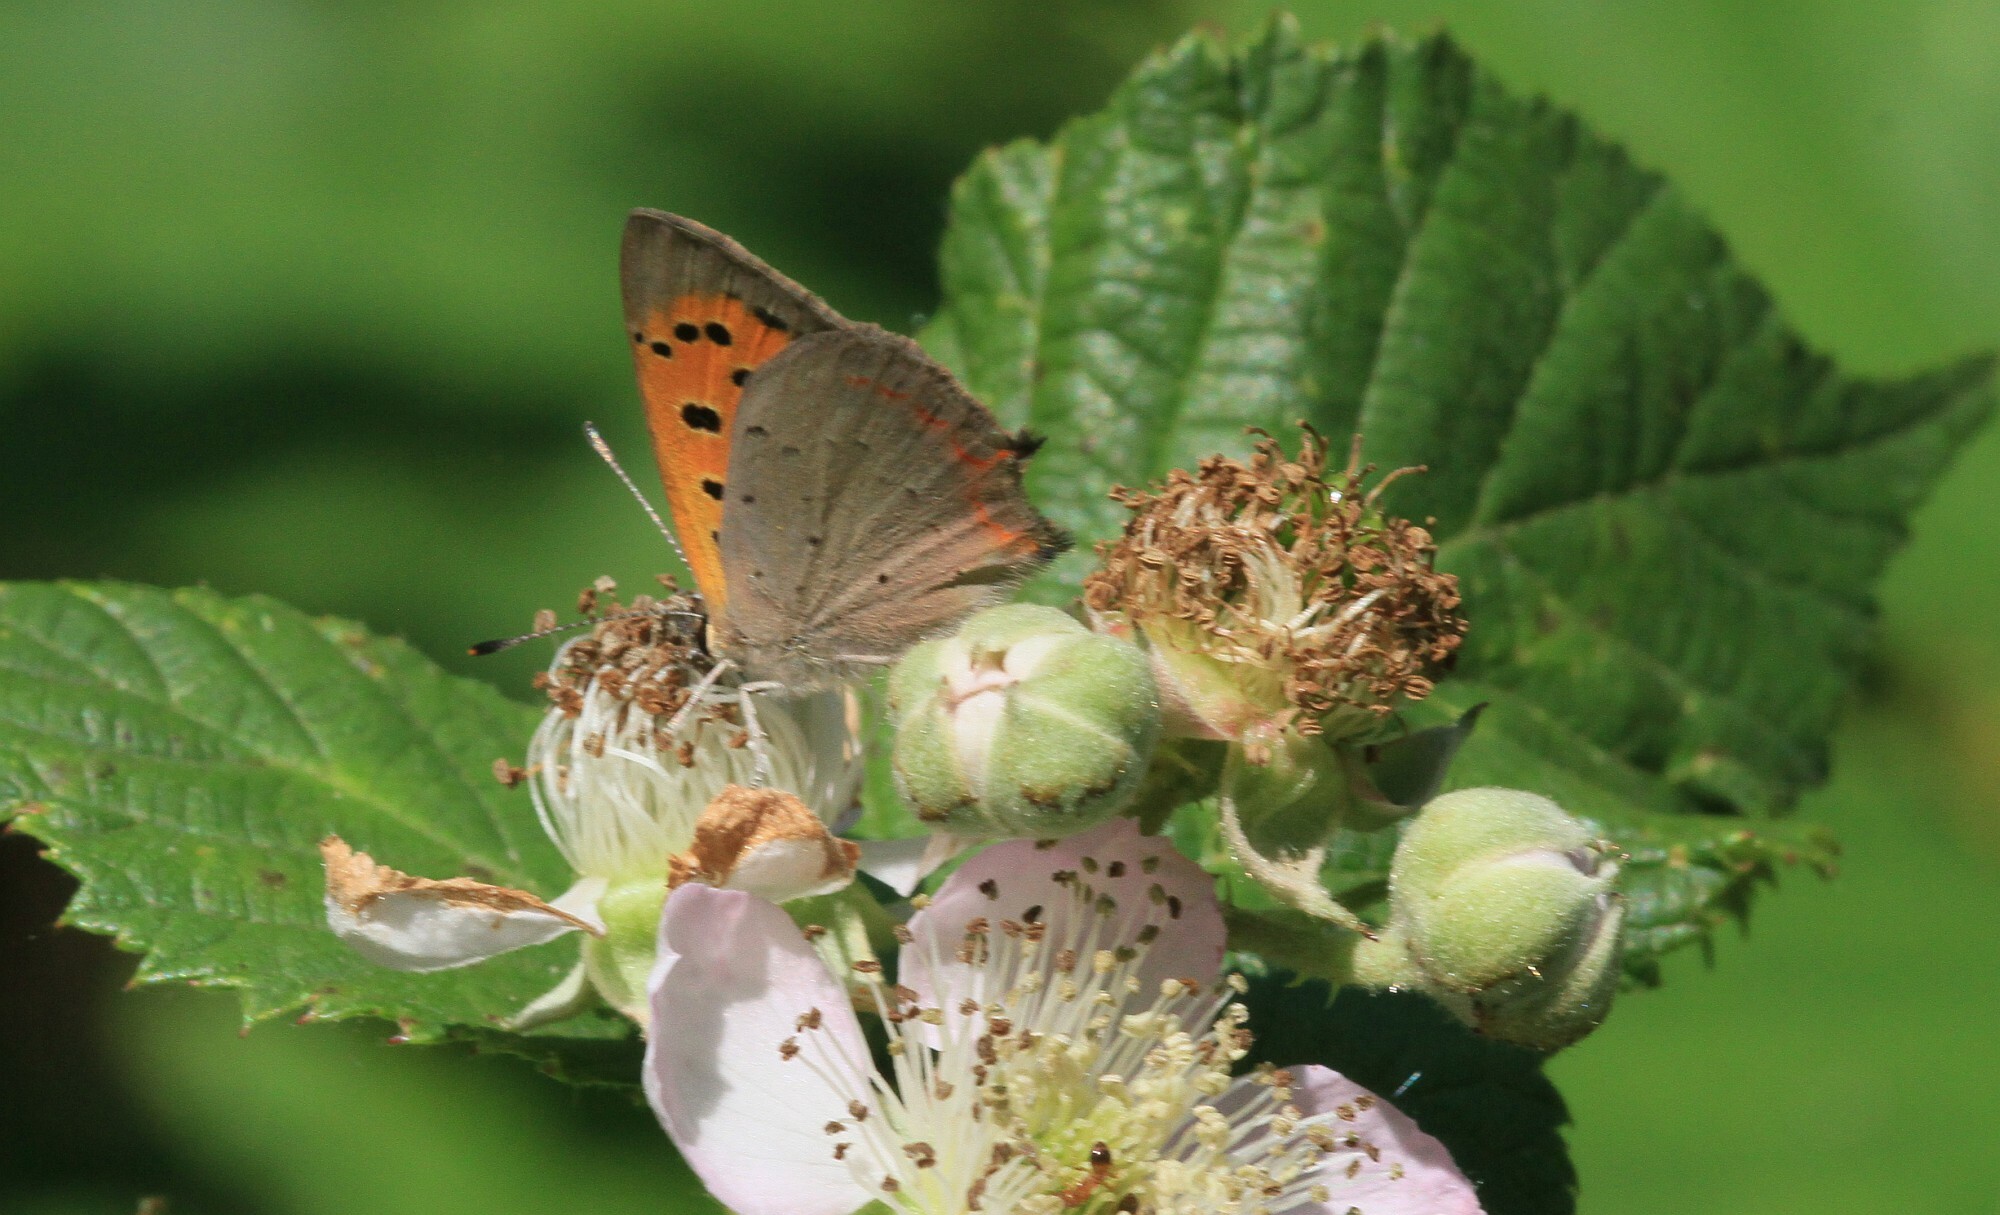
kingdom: Animalia
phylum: Arthropoda
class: Insecta
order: Lepidoptera
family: Lycaenidae
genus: Lycaena
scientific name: Lycaena phlaeas
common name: Small copper
